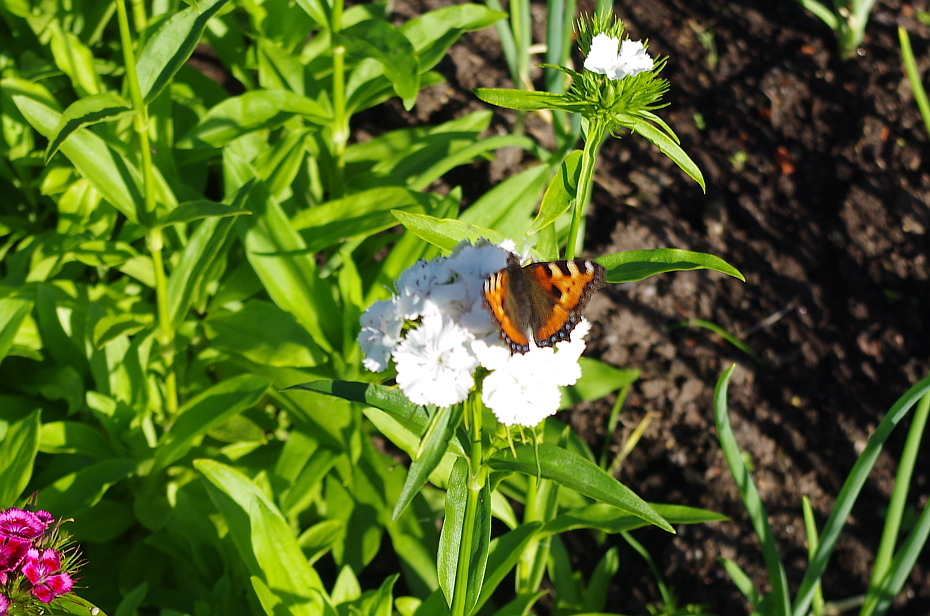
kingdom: Animalia
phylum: Arthropoda
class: Insecta
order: Lepidoptera
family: Nymphalidae
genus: Aglais
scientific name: Aglais urticae
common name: Small tortoiseshell
